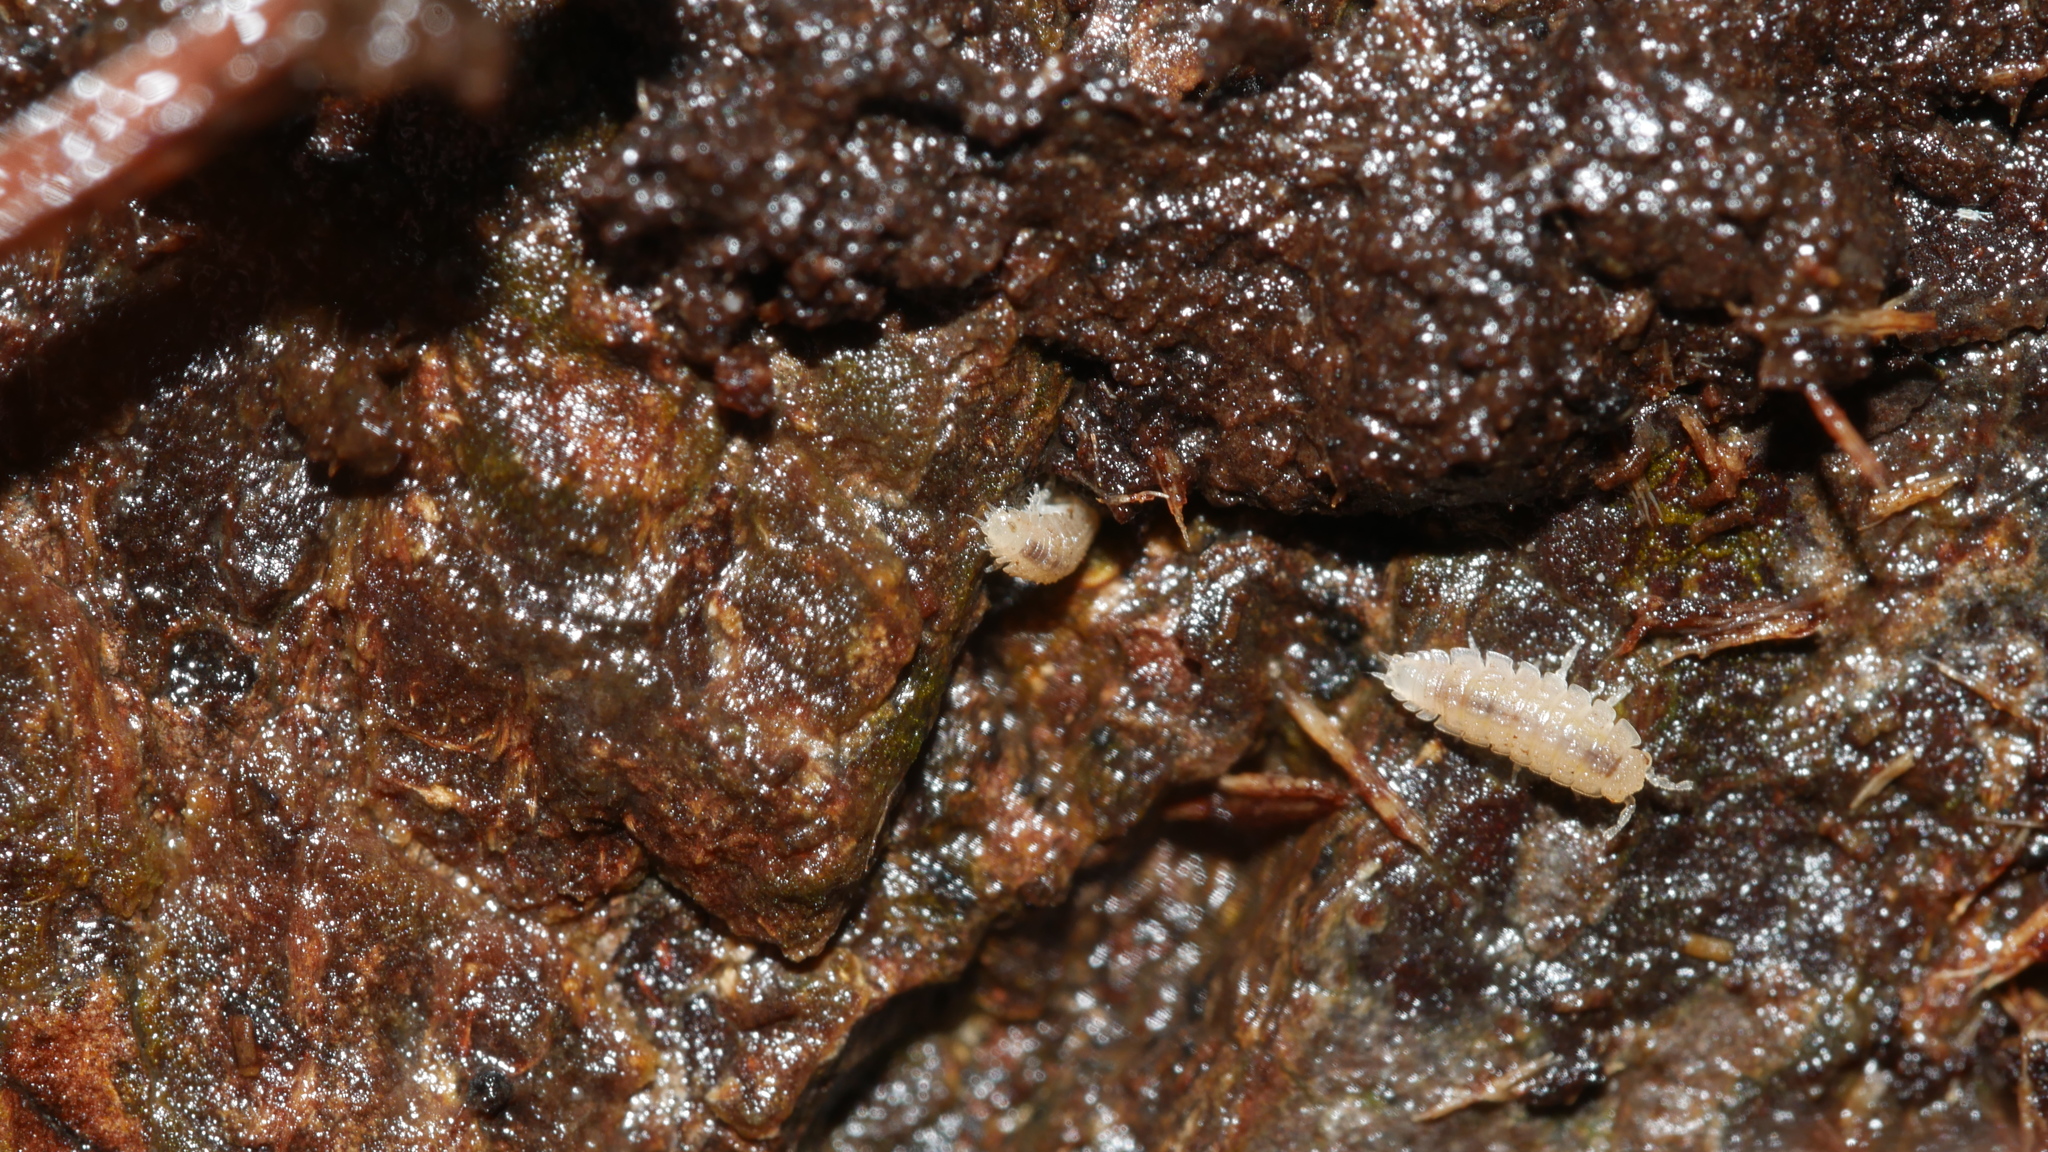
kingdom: Animalia
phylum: Arthropoda
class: Malacostraca
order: Isopoda
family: Trichoniscidae
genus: Haplophthalmus
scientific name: Haplophthalmus danicus
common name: Pillbug
